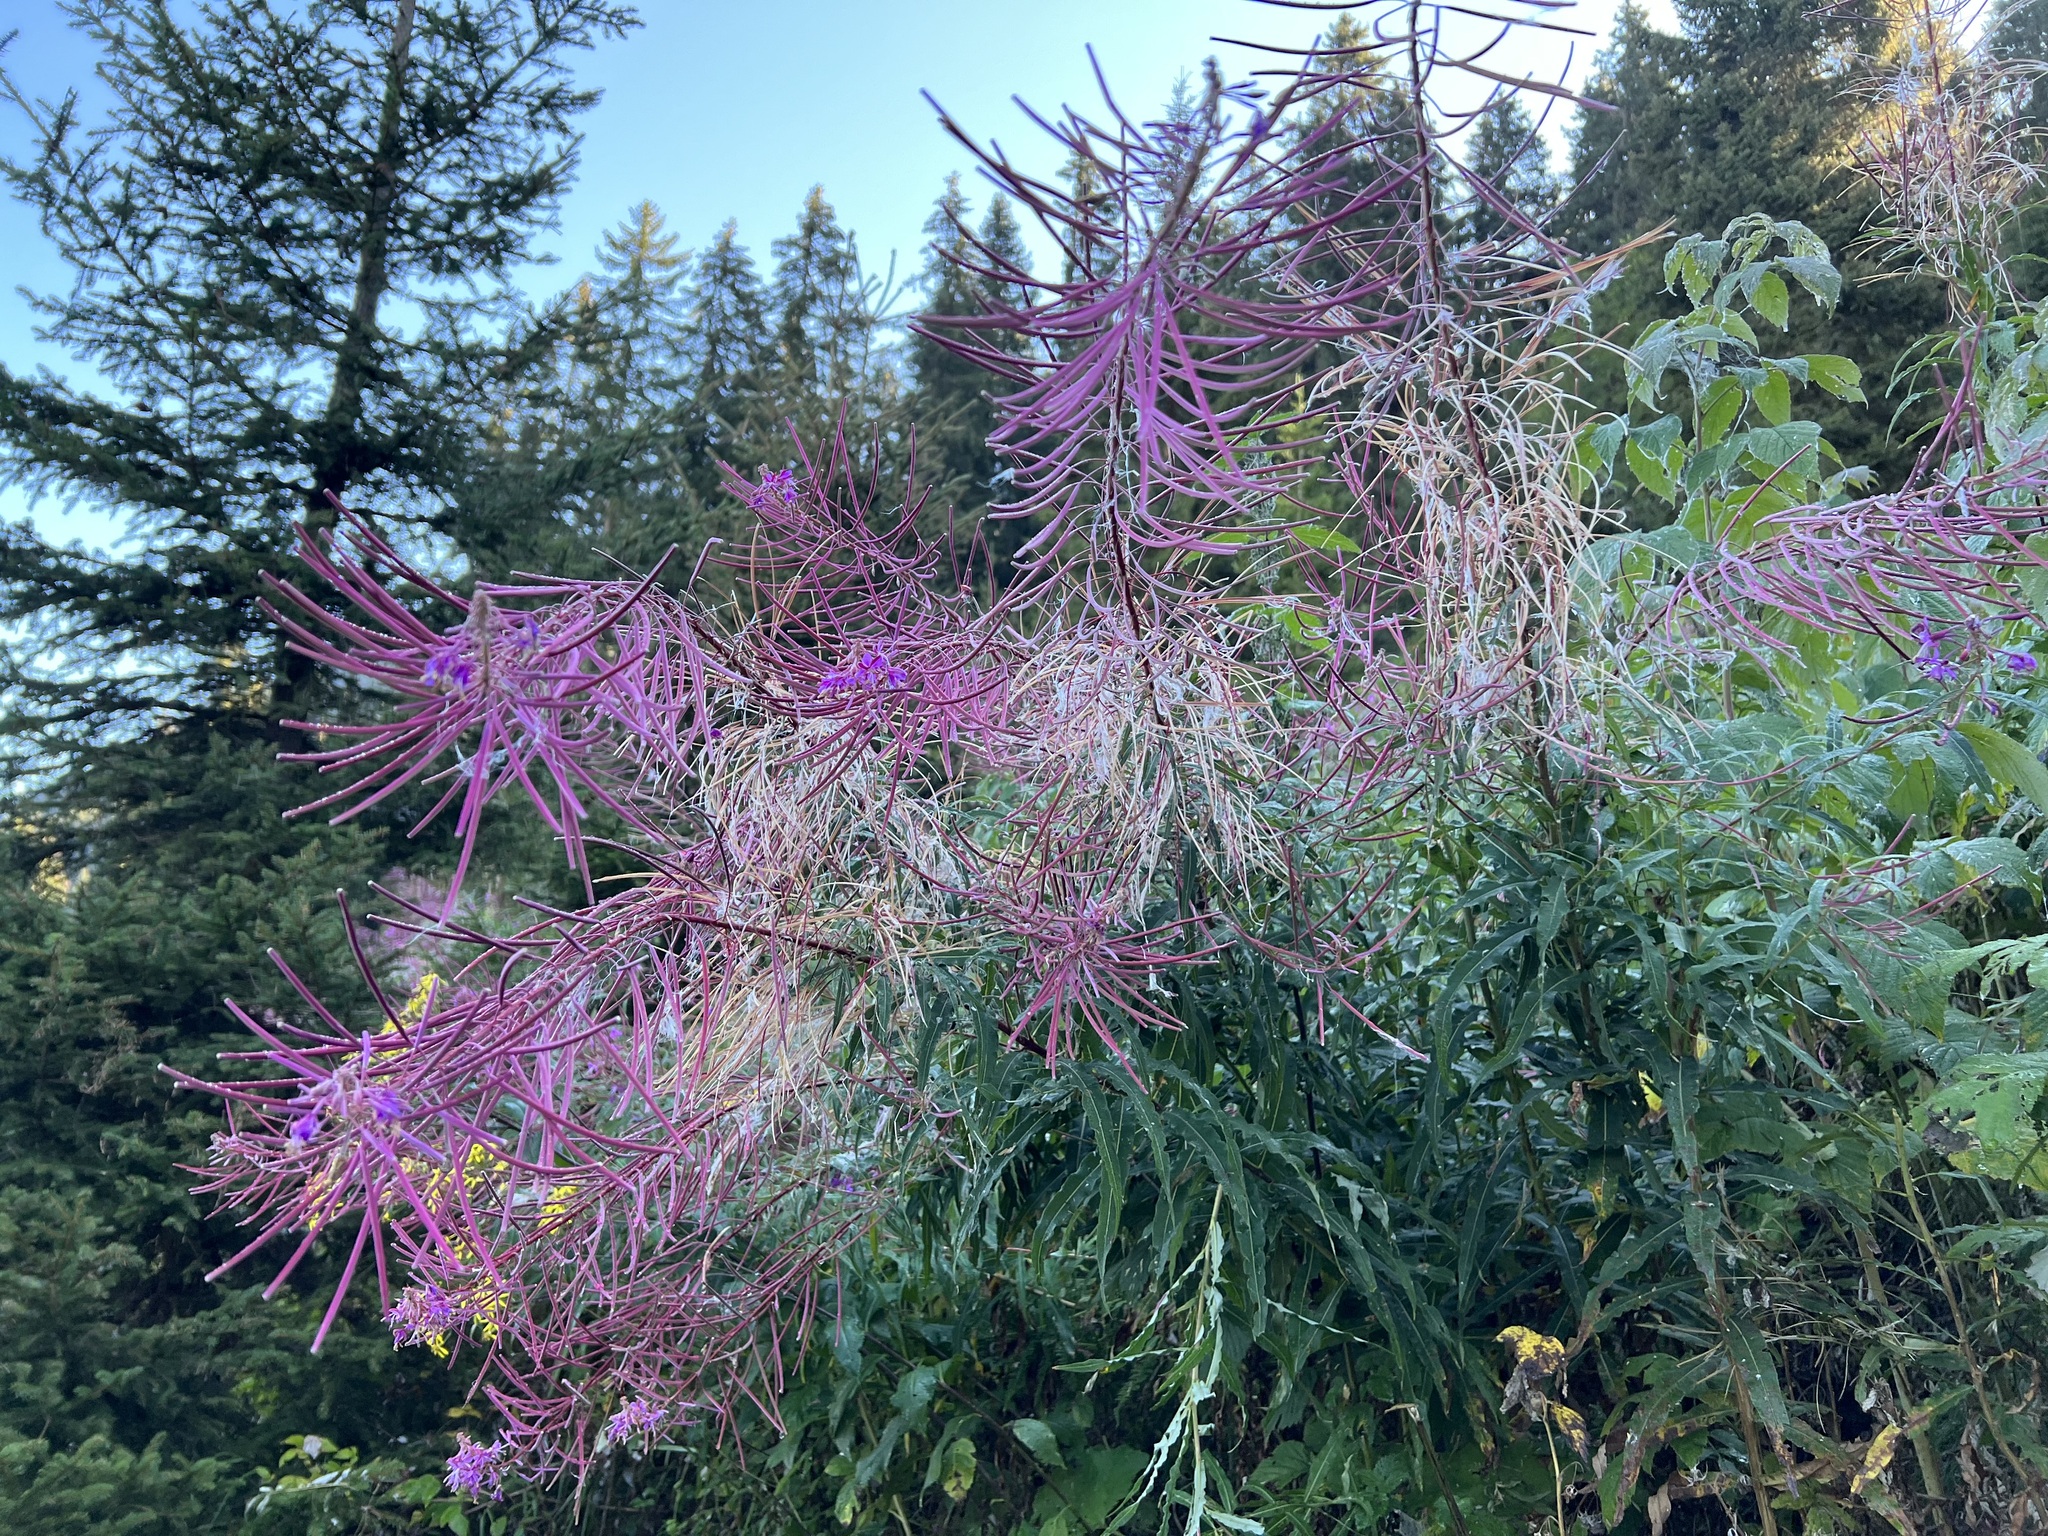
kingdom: Plantae
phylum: Tracheophyta
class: Magnoliopsida
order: Myrtales
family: Onagraceae
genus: Chamaenerion
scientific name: Chamaenerion angustifolium
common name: Fireweed
